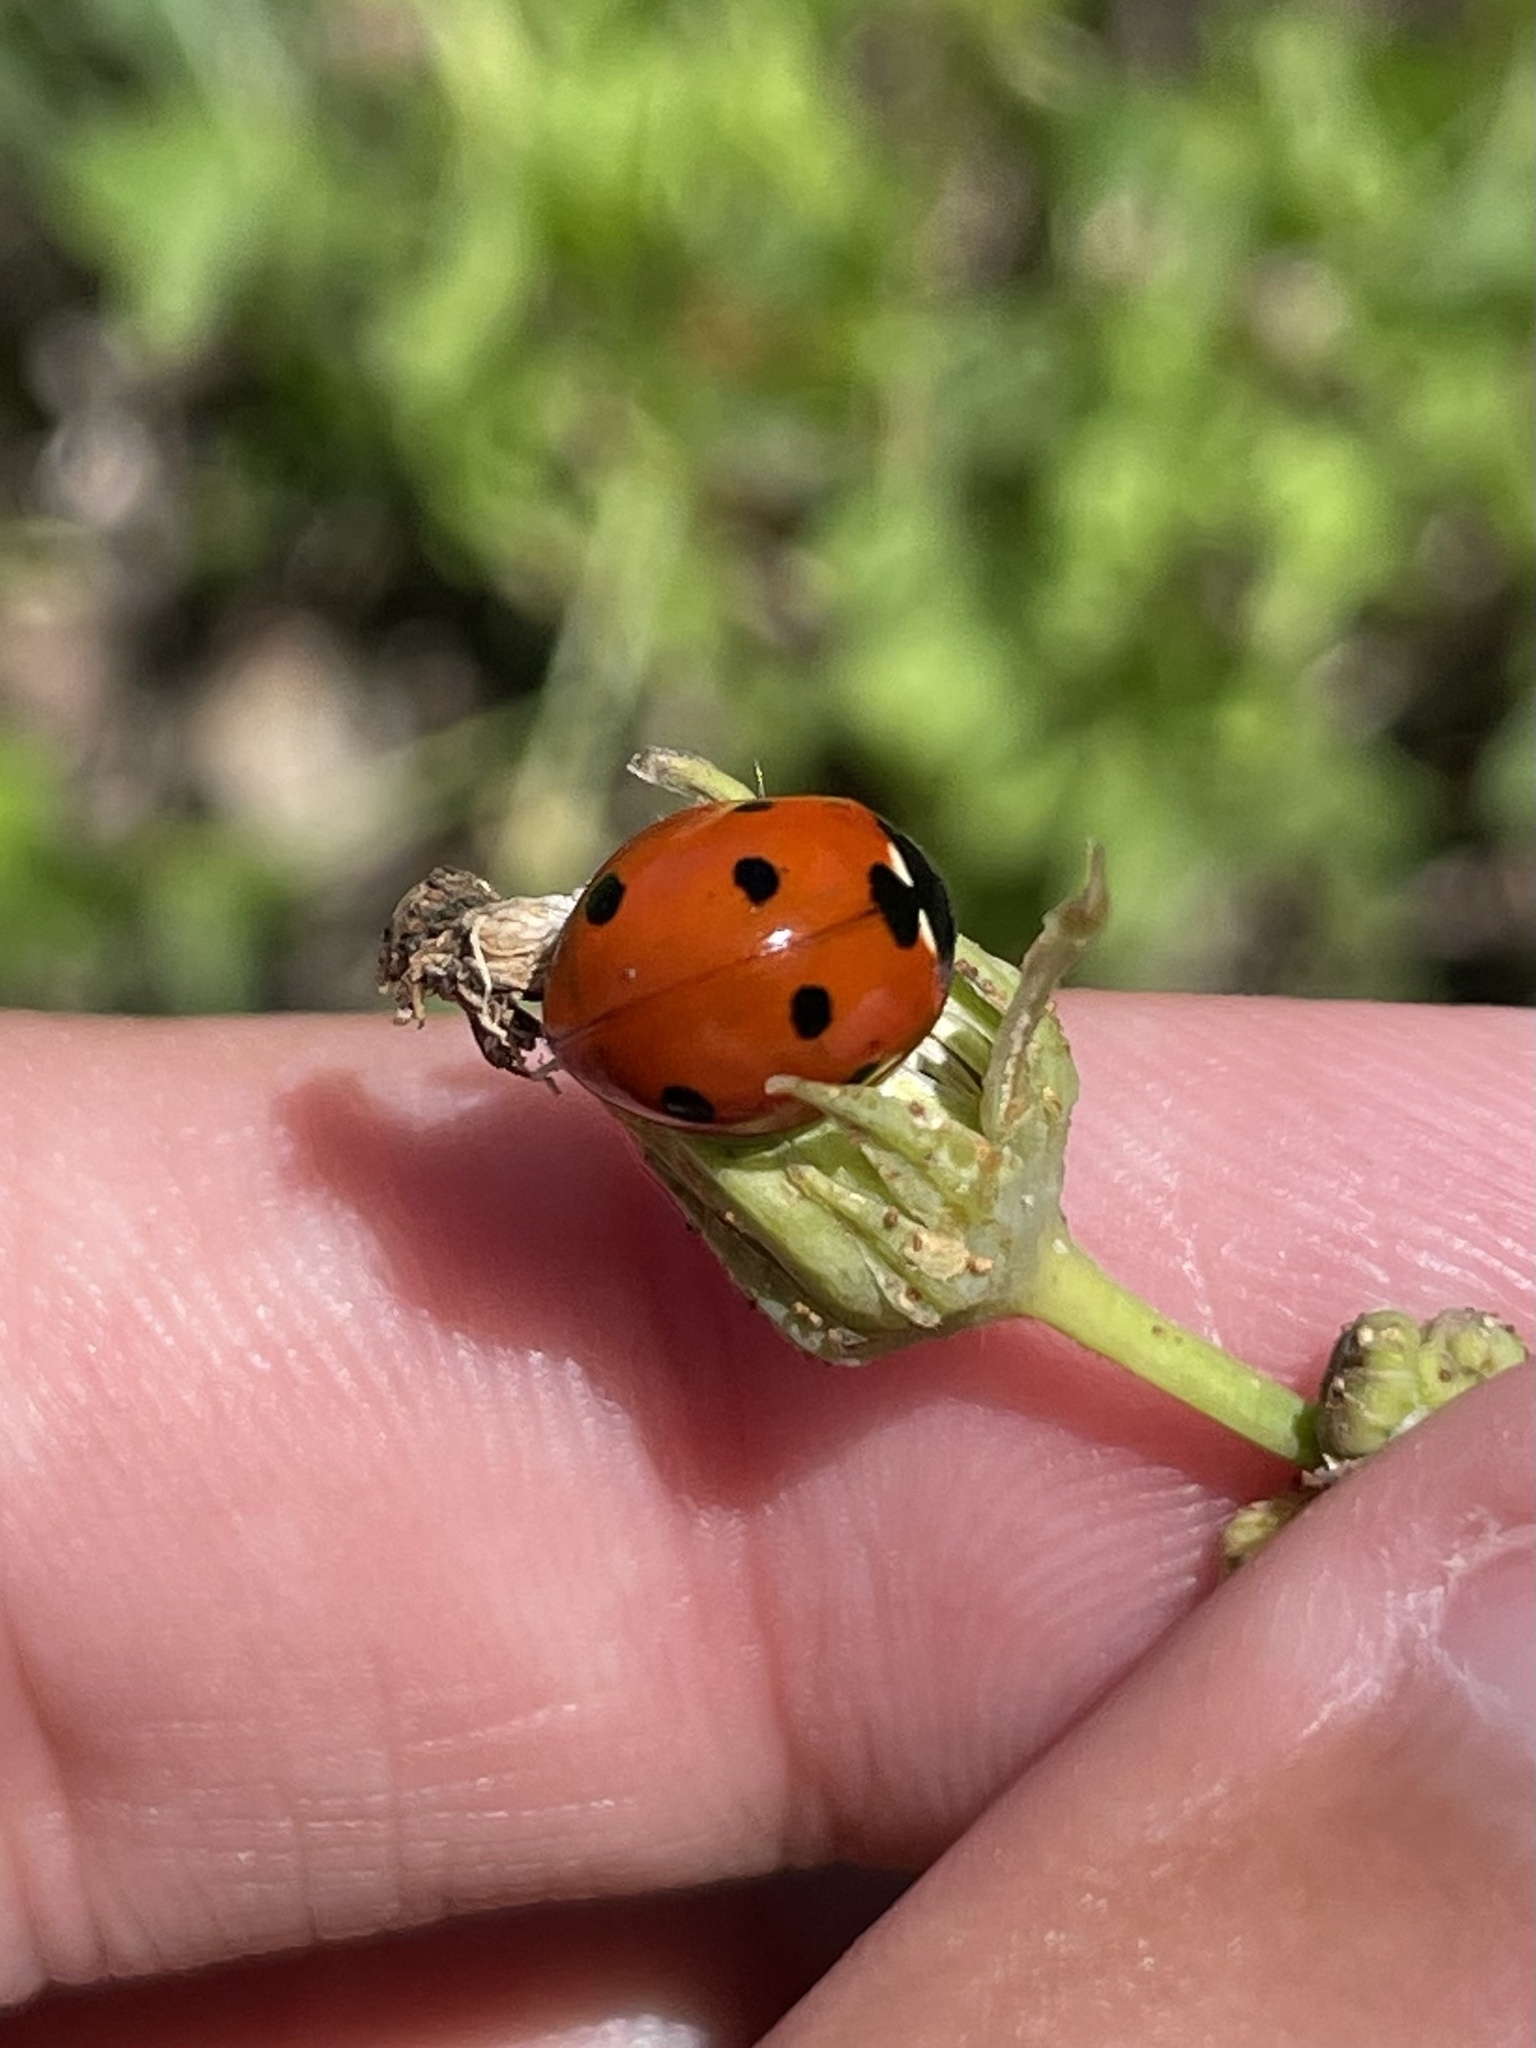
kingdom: Animalia
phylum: Arthropoda
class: Insecta
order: Coleoptera
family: Coccinellidae
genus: Coccinella
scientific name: Coccinella septempunctata
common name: Sevenspotted lady beetle
